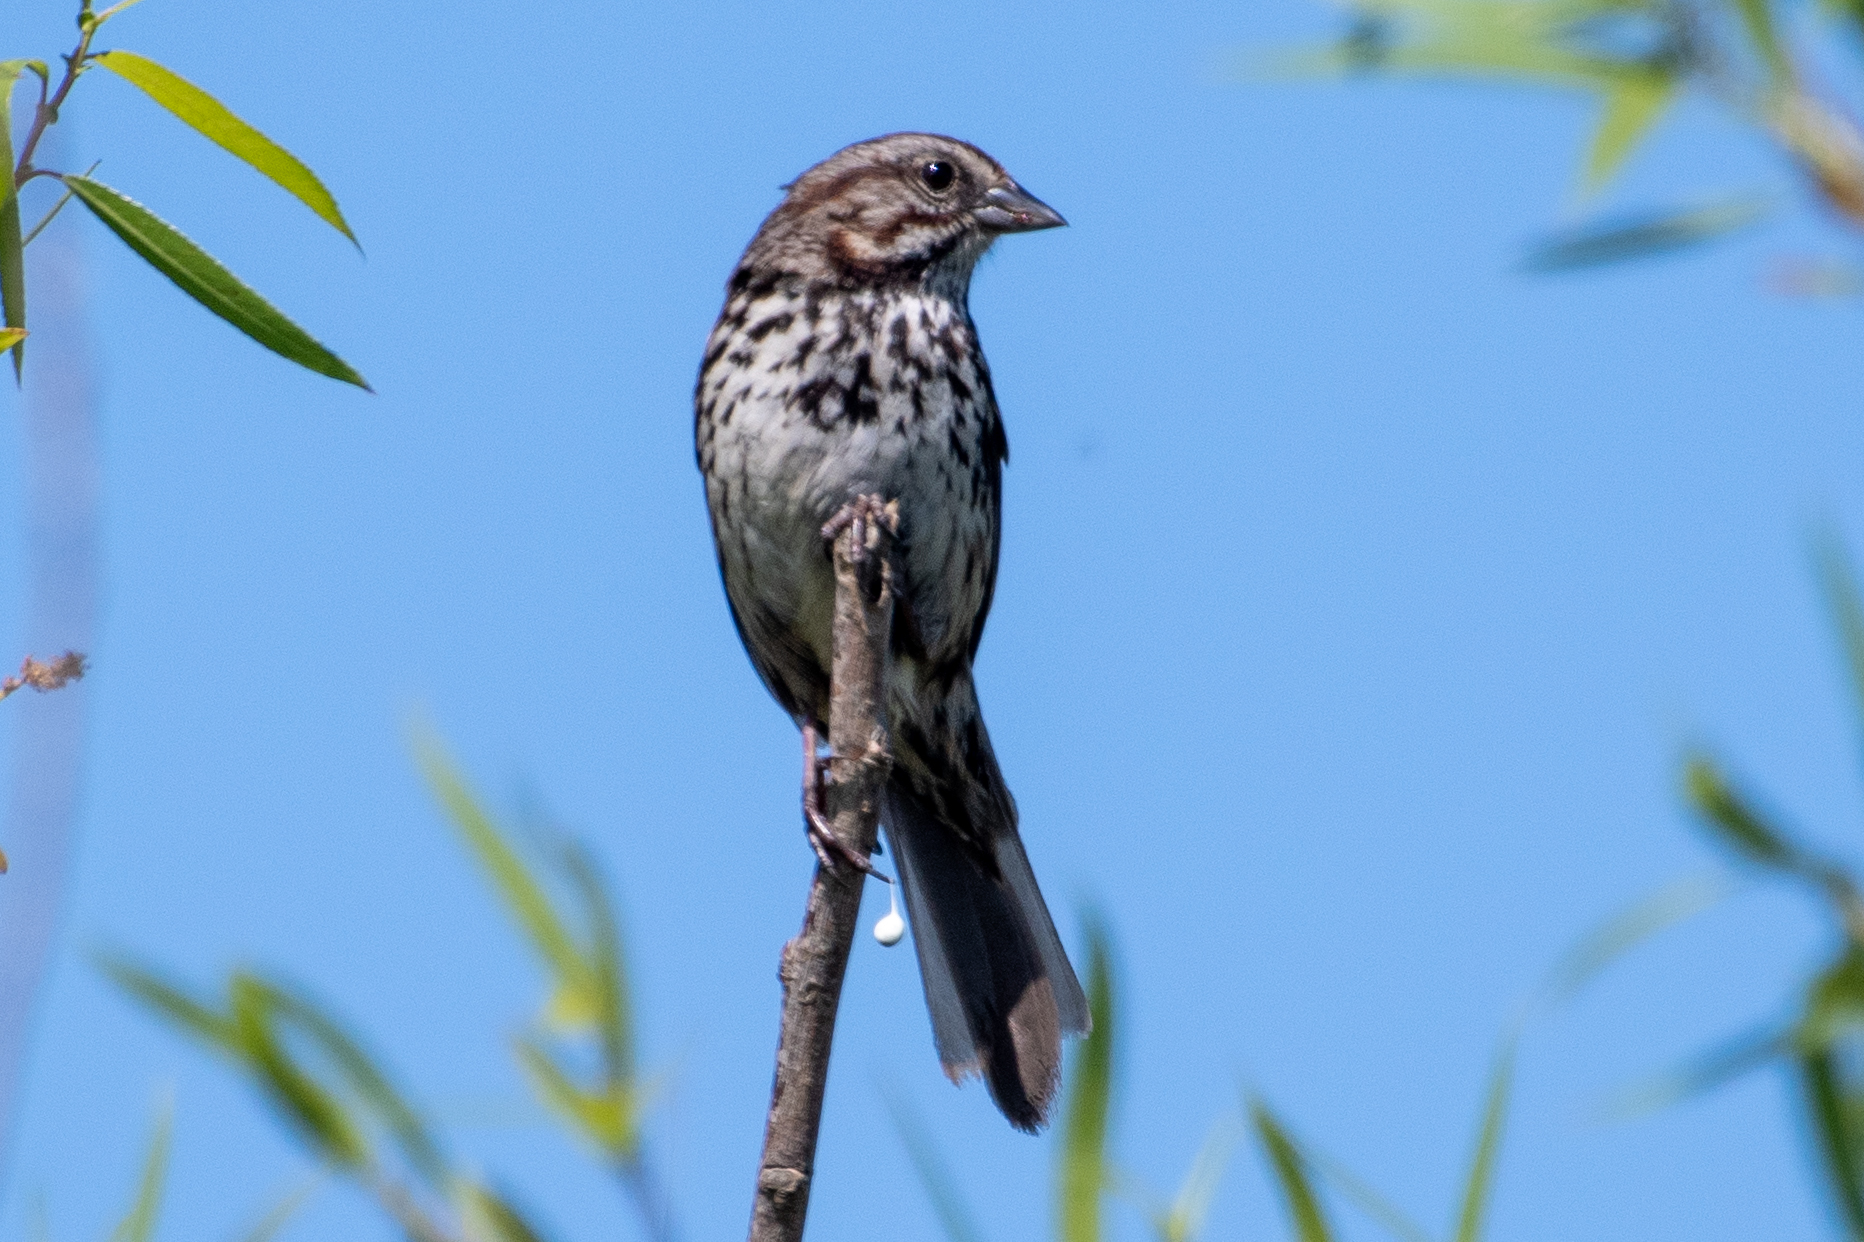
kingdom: Animalia
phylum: Chordata
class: Aves
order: Passeriformes
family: Passerellidae
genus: Melospiza
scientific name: Melospiza melodia
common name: Song sparrow
